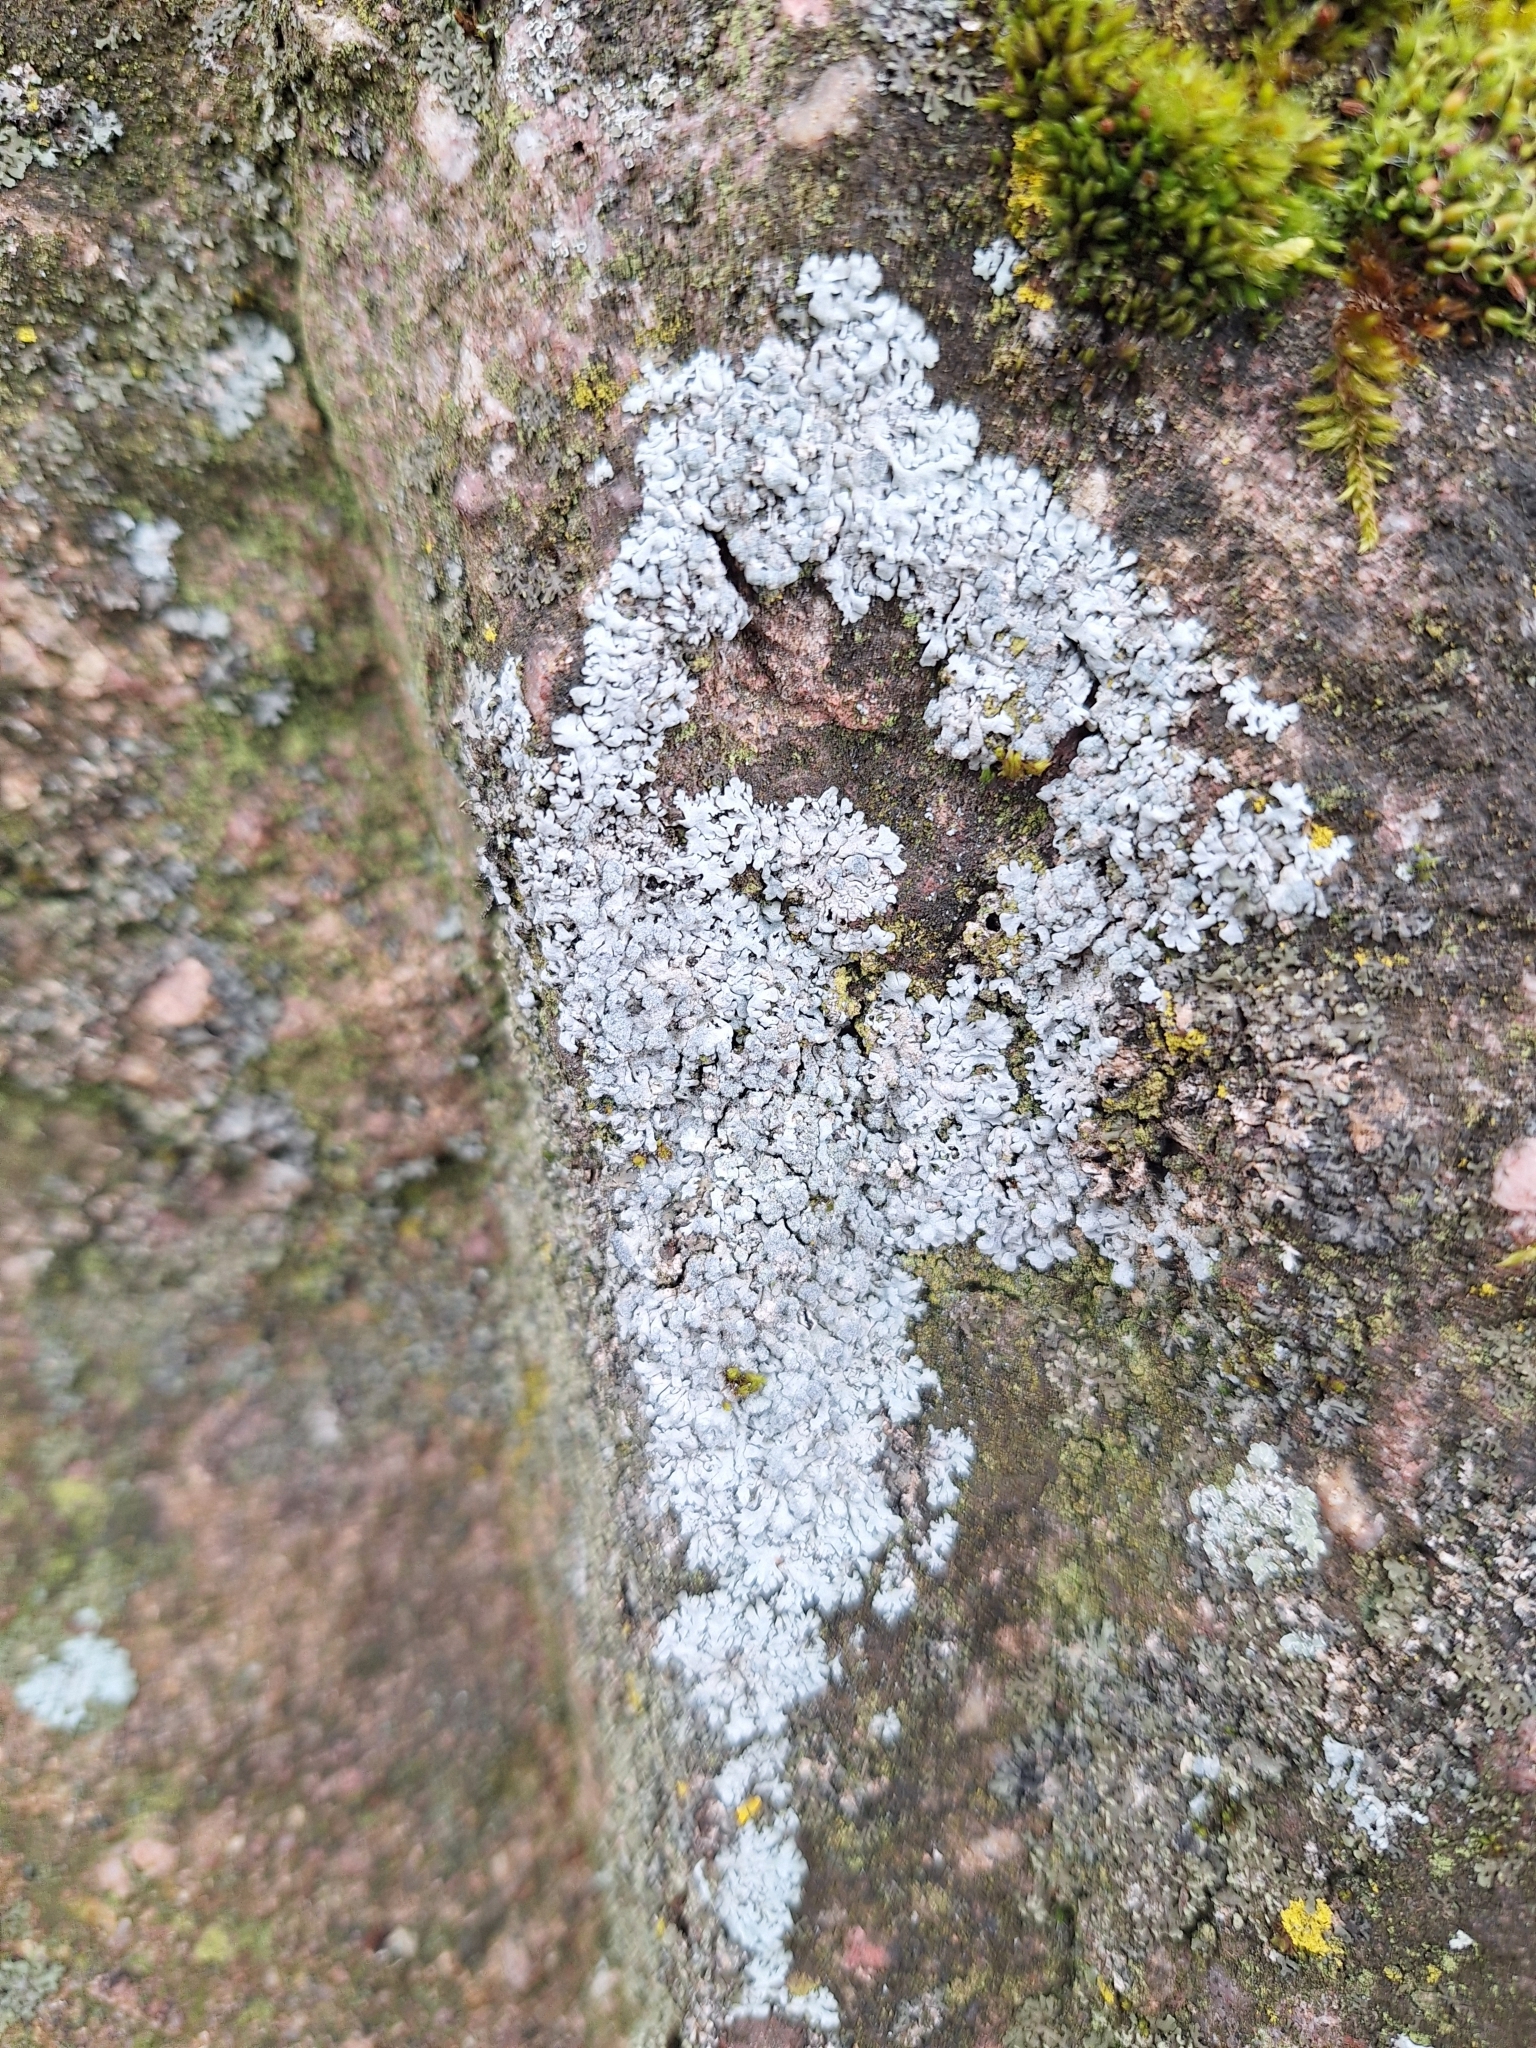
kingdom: Fungi
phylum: Ascomycota
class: Lecanoromycetes
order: Caliciales
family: Physciaceae
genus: Physcia
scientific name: Physcia caesia
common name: Blue-gray rosette lichen
